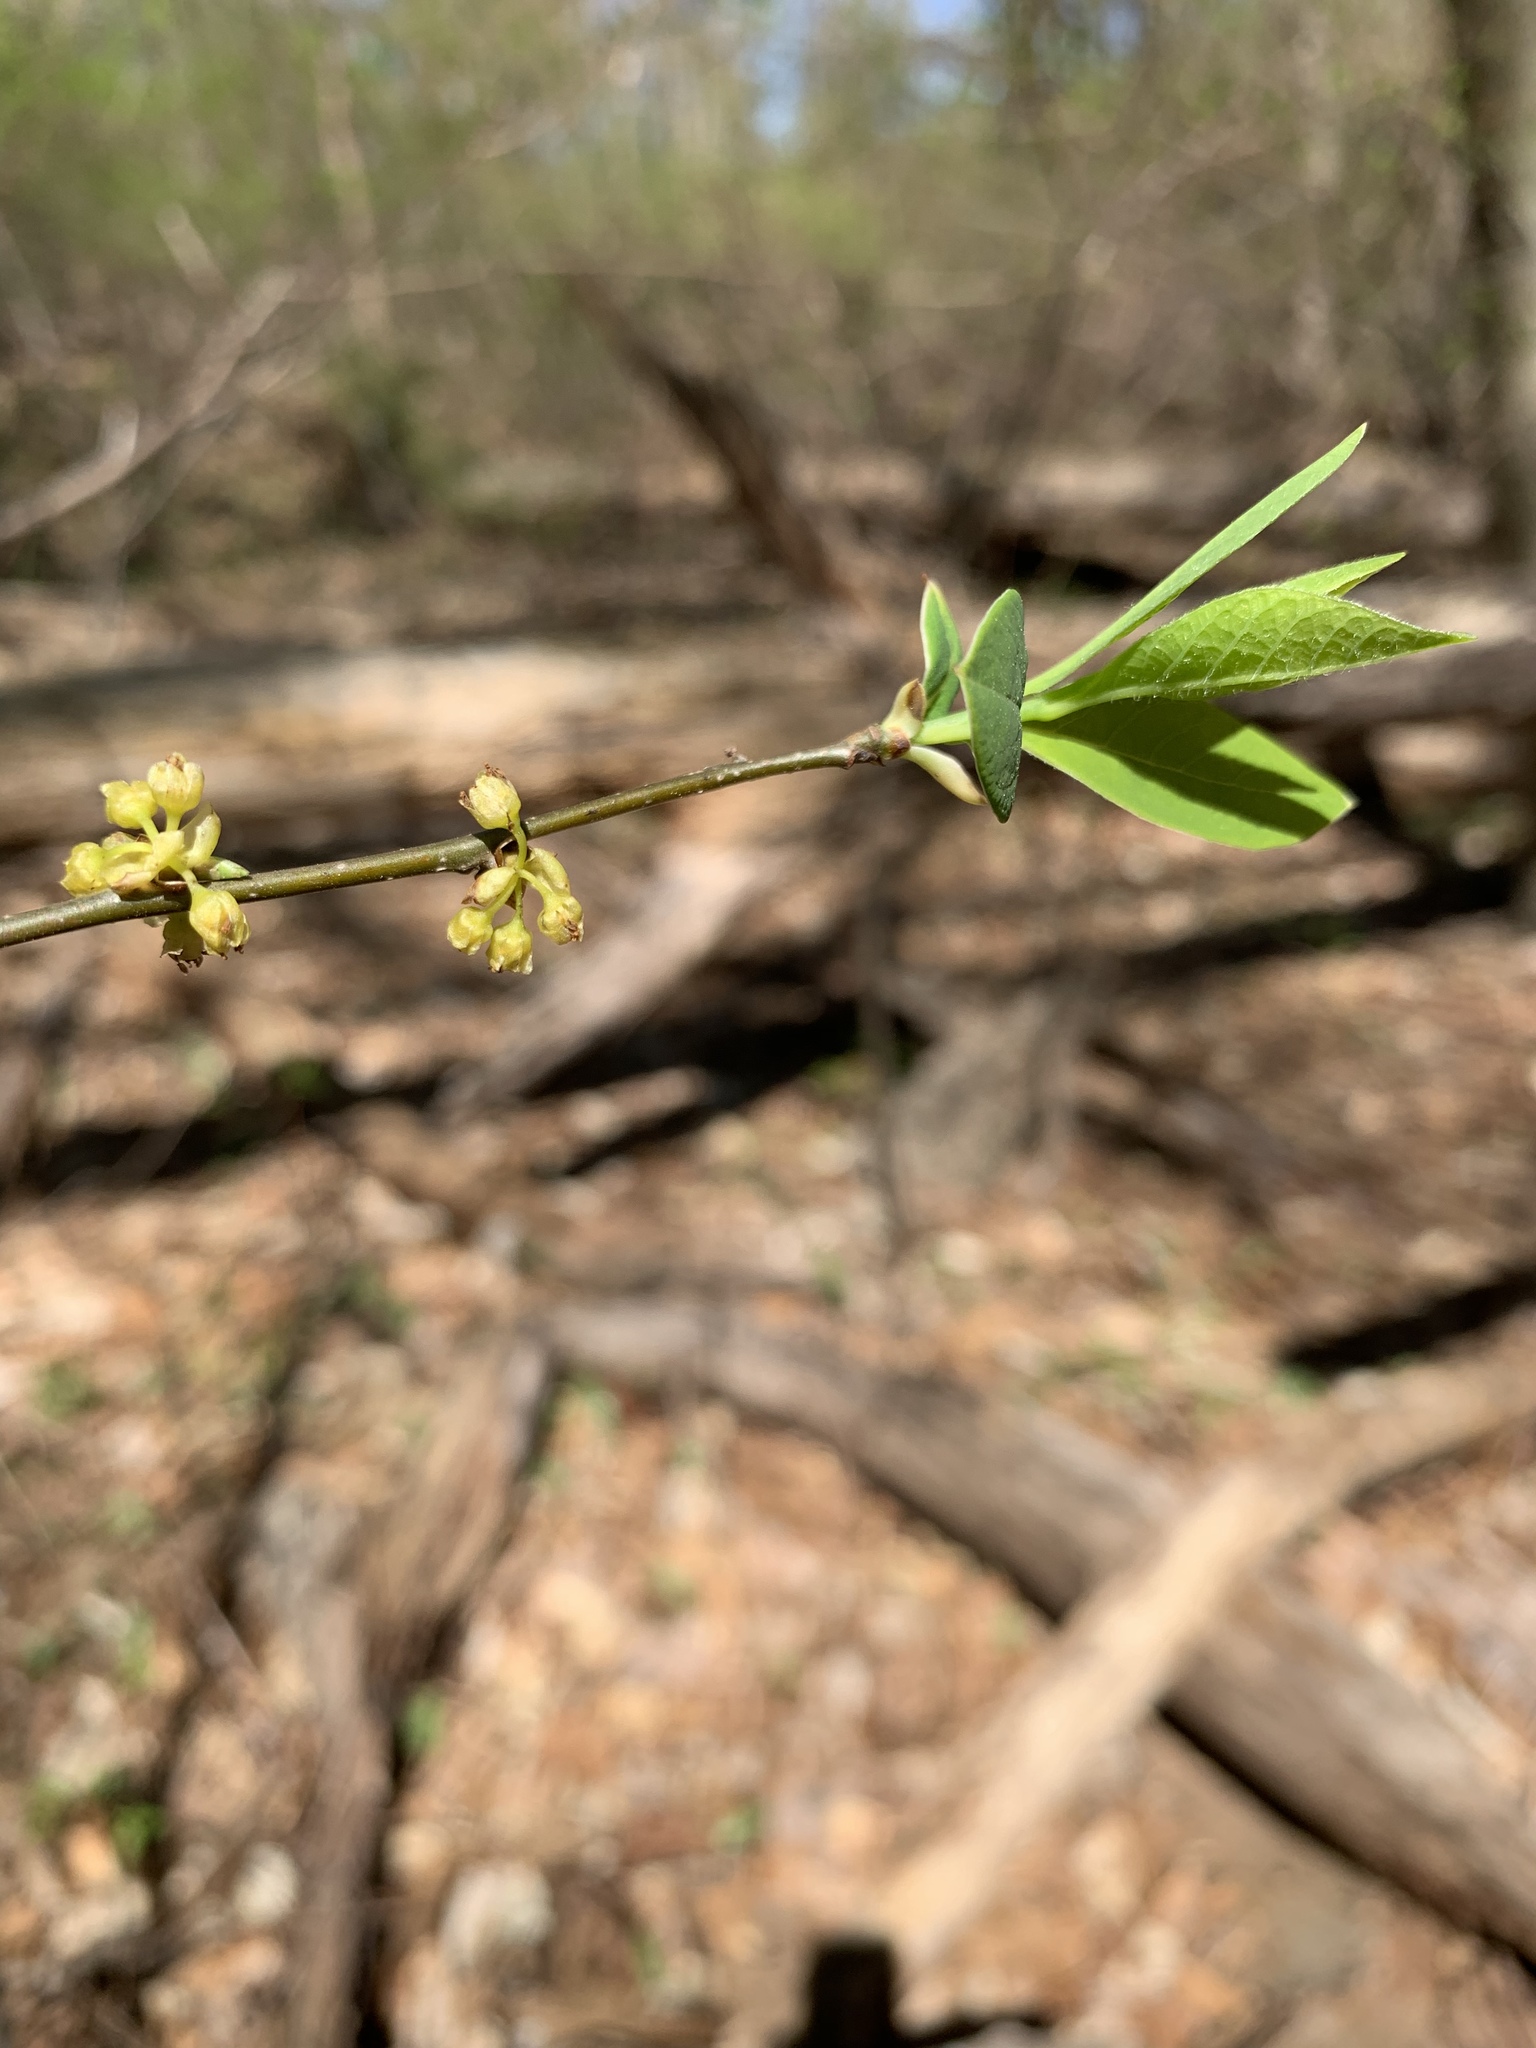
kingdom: Plantae
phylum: Tracheophyta
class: Magnoliopsida
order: Laurales
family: Lauraceae
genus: Lindera
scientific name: Lindera benzoin
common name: Spicebush
